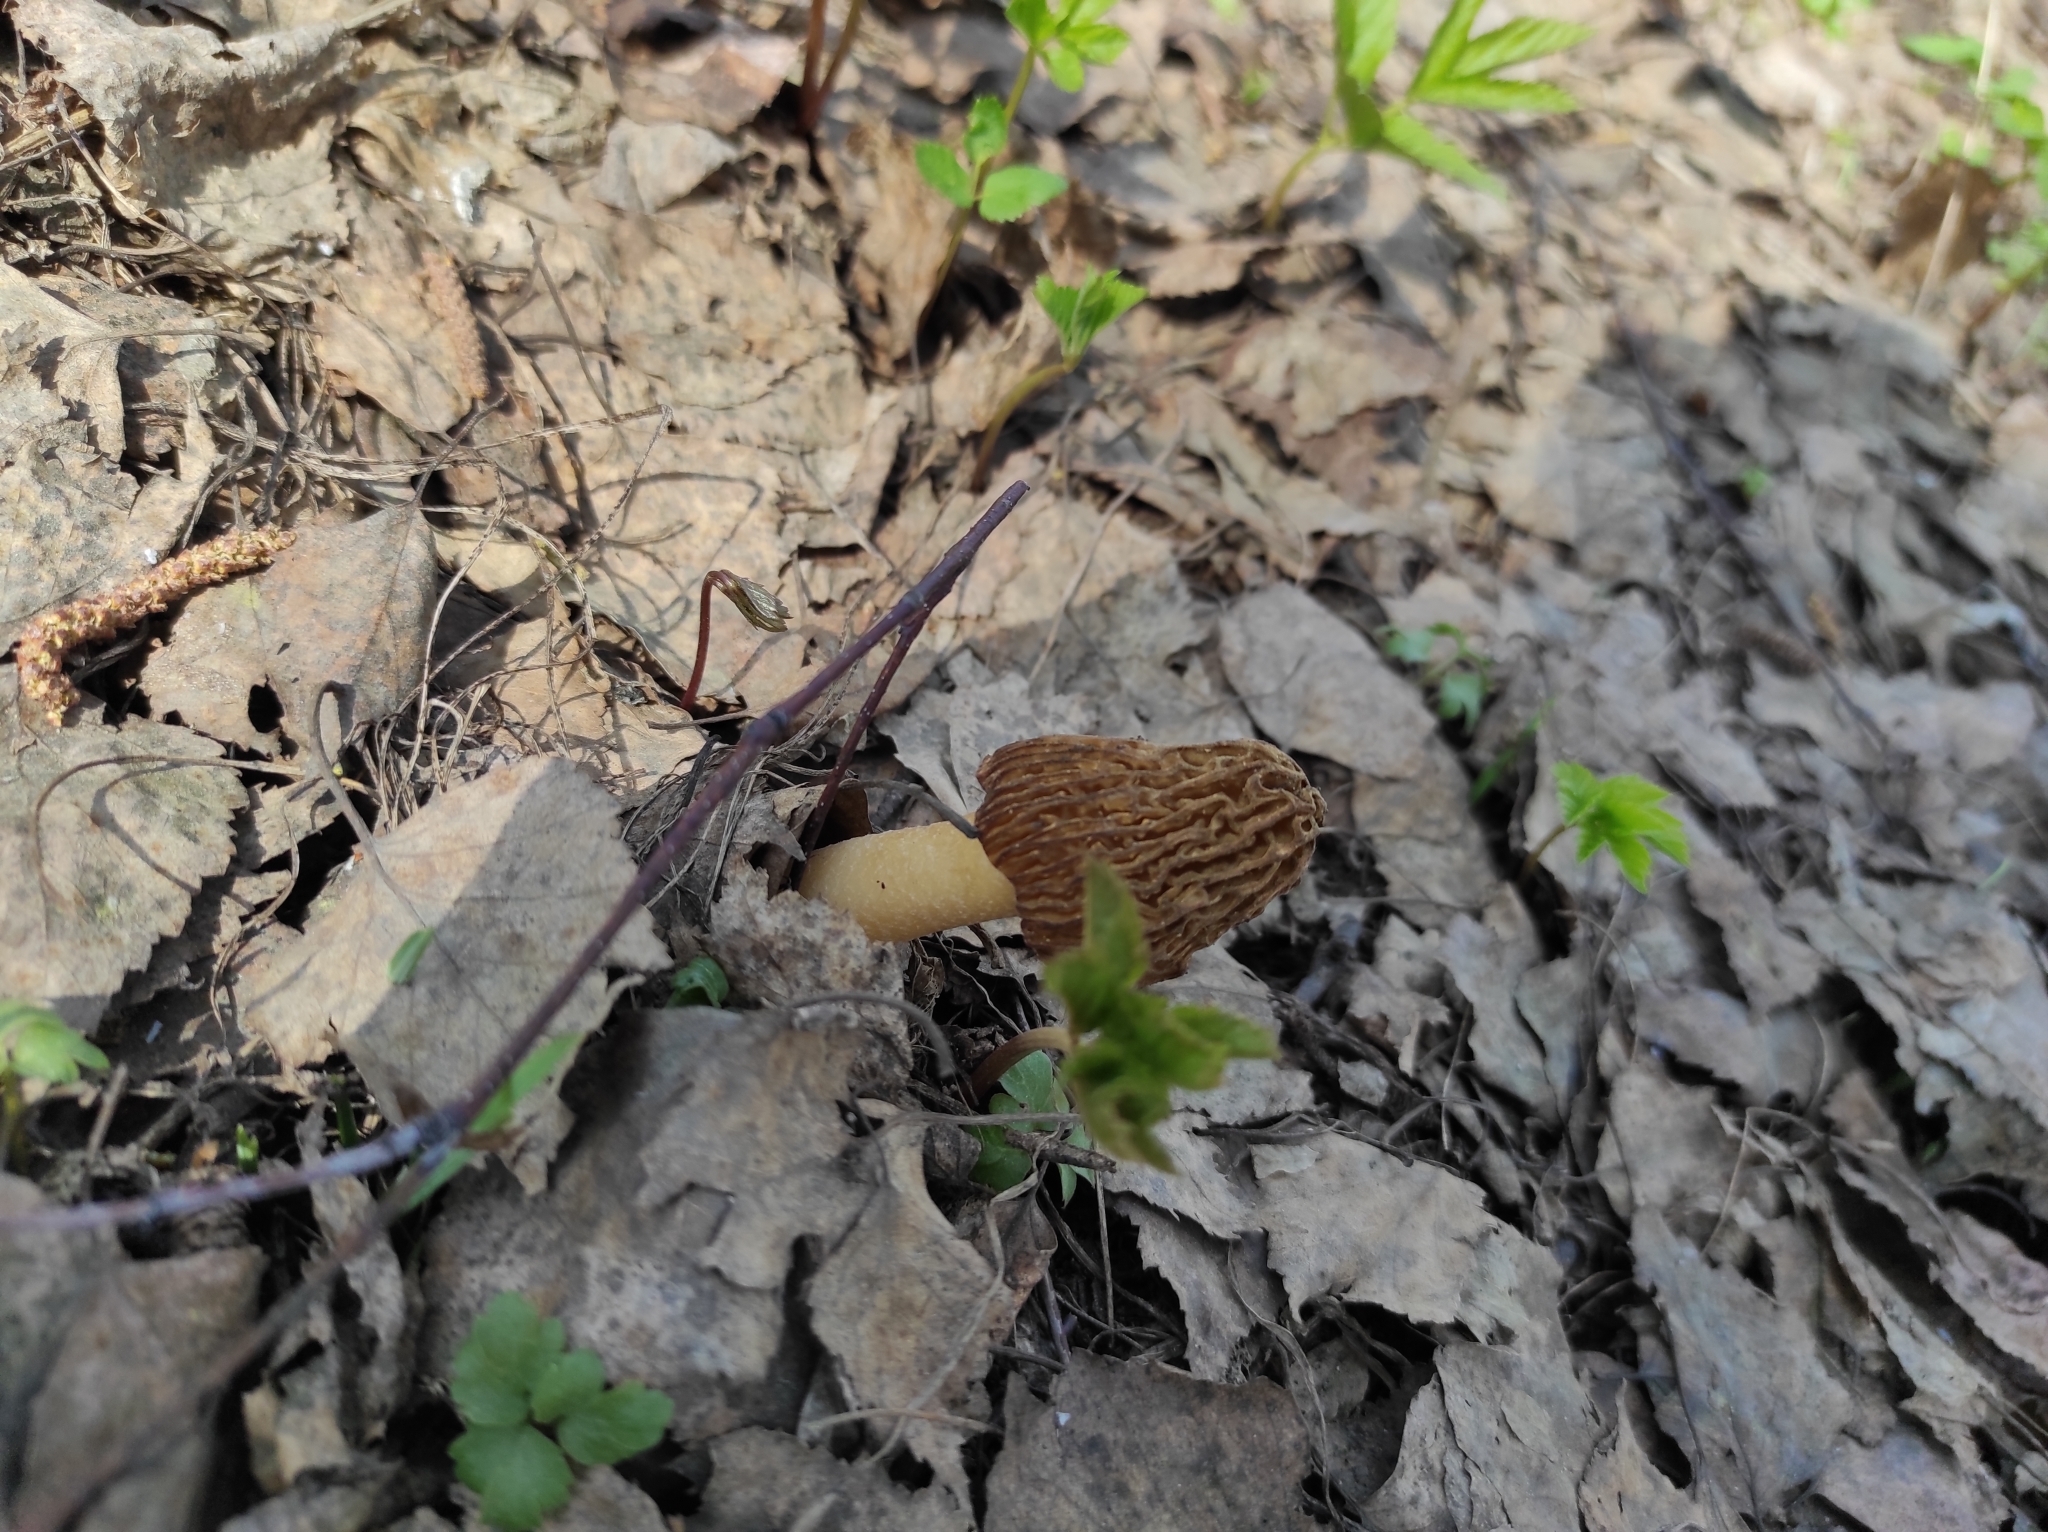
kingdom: Fungi
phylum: Ascomycota
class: Pezizomycetes
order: Pezizales
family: Morchellaceae
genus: Verpa
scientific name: Verpa bohemica
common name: Wrinkled thimble morel
